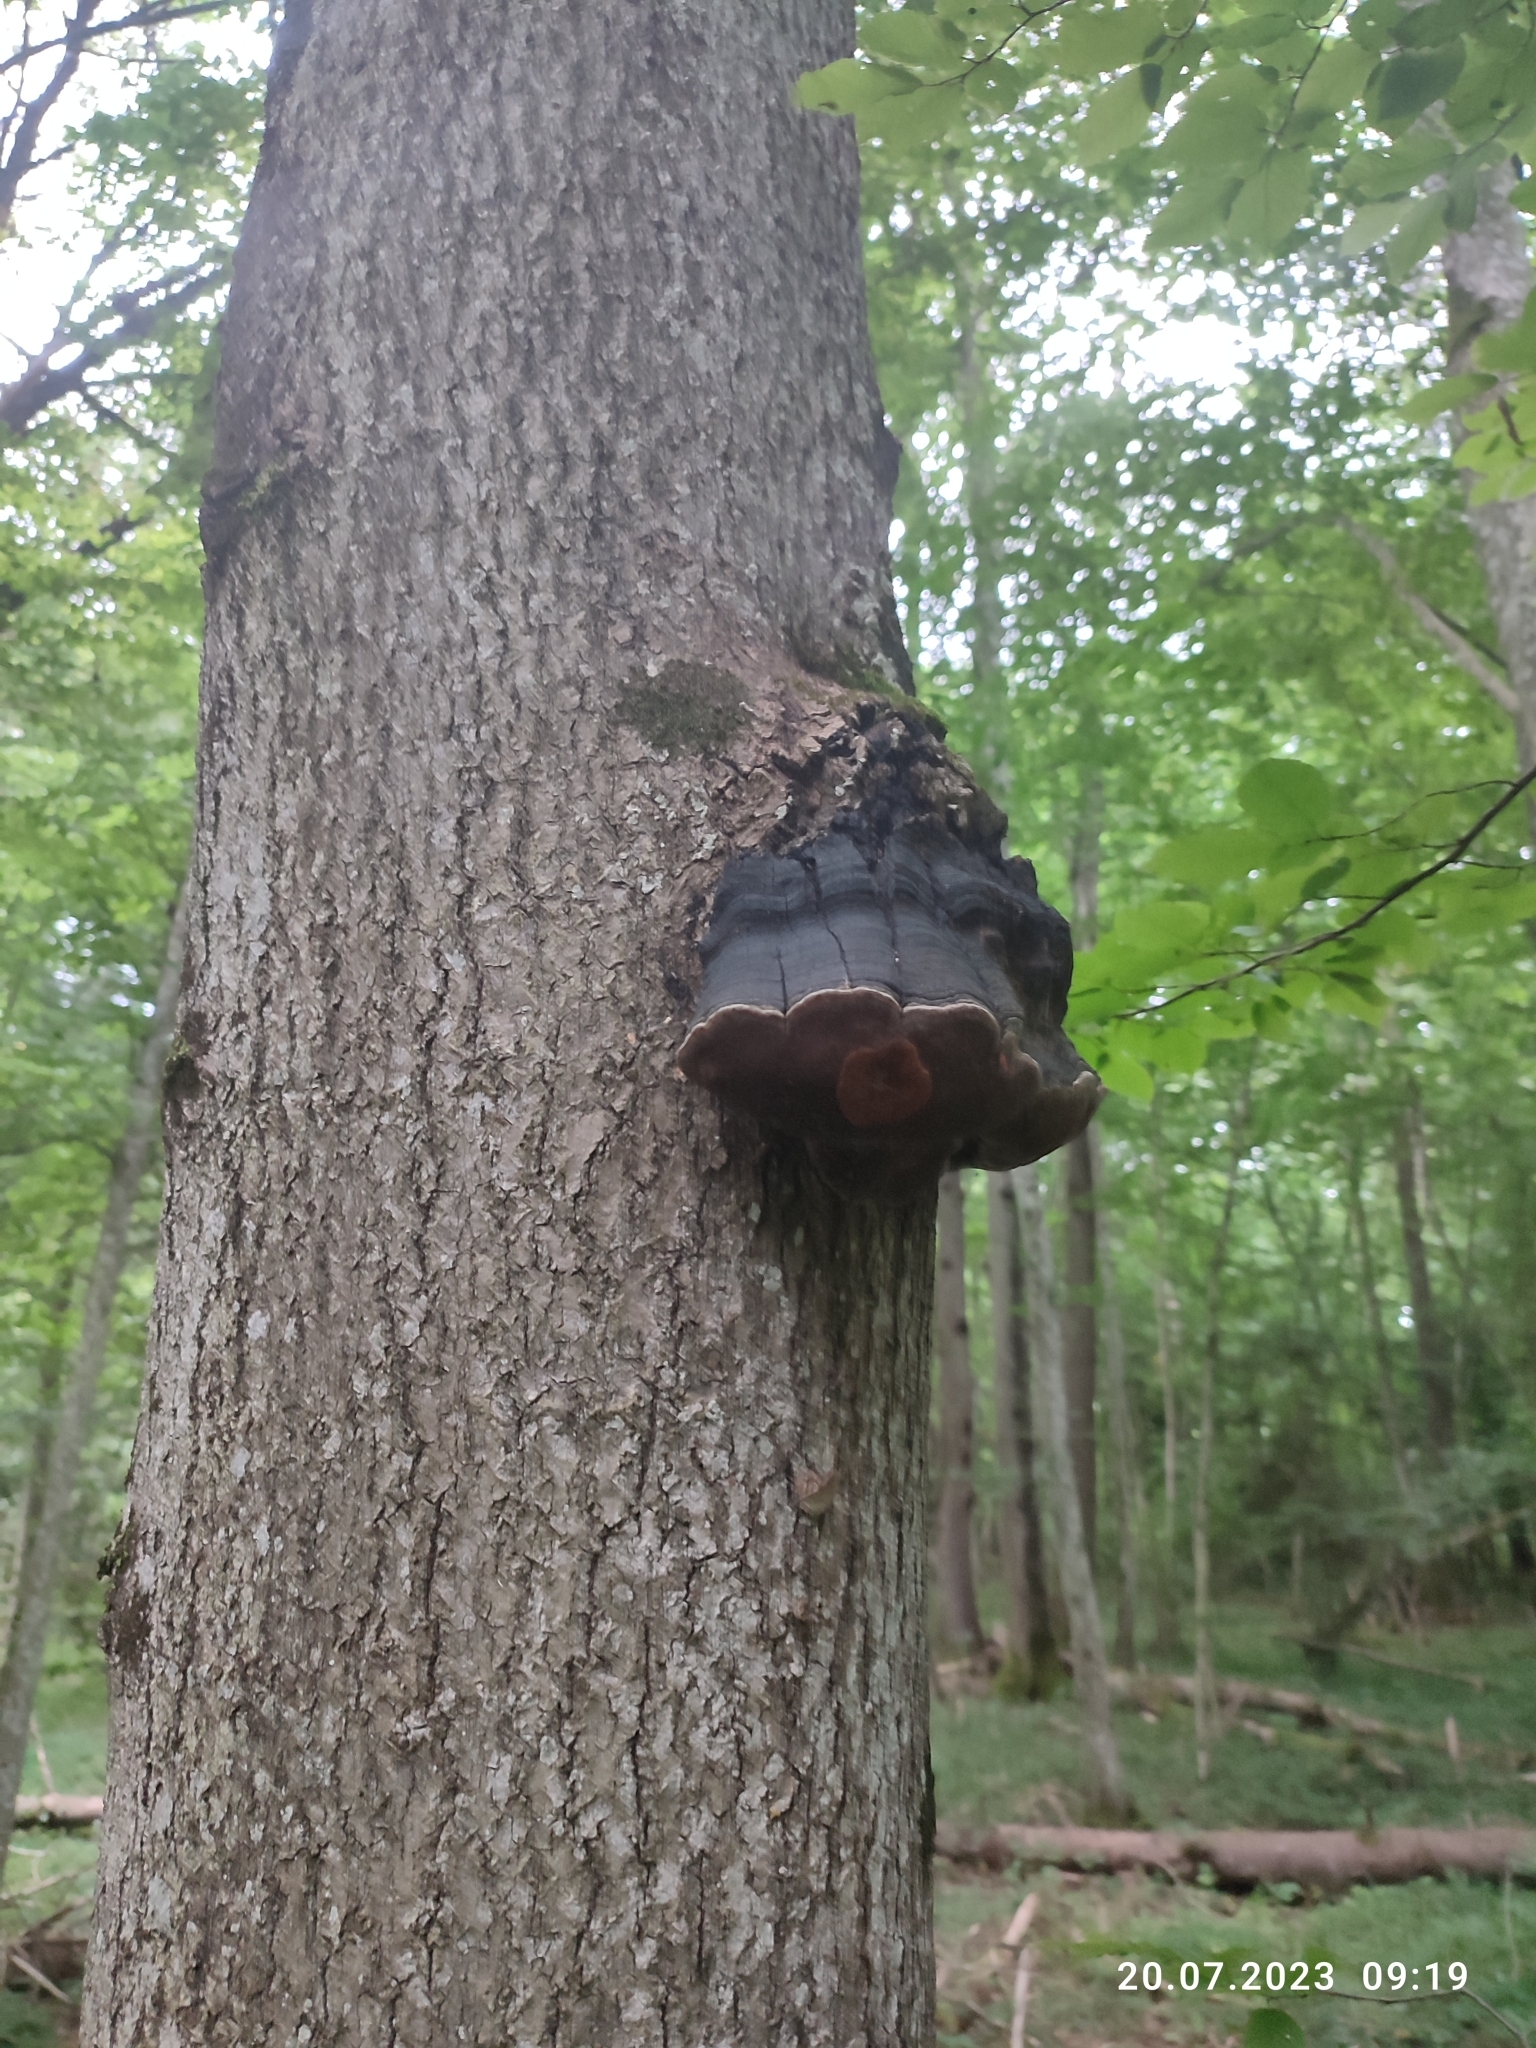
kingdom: Fungi
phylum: Basidiomycota
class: Agaricomycetes
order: Polyporales
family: Polyporaceae
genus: Fomes
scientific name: Fomes fomentarius
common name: Hoof fungus
